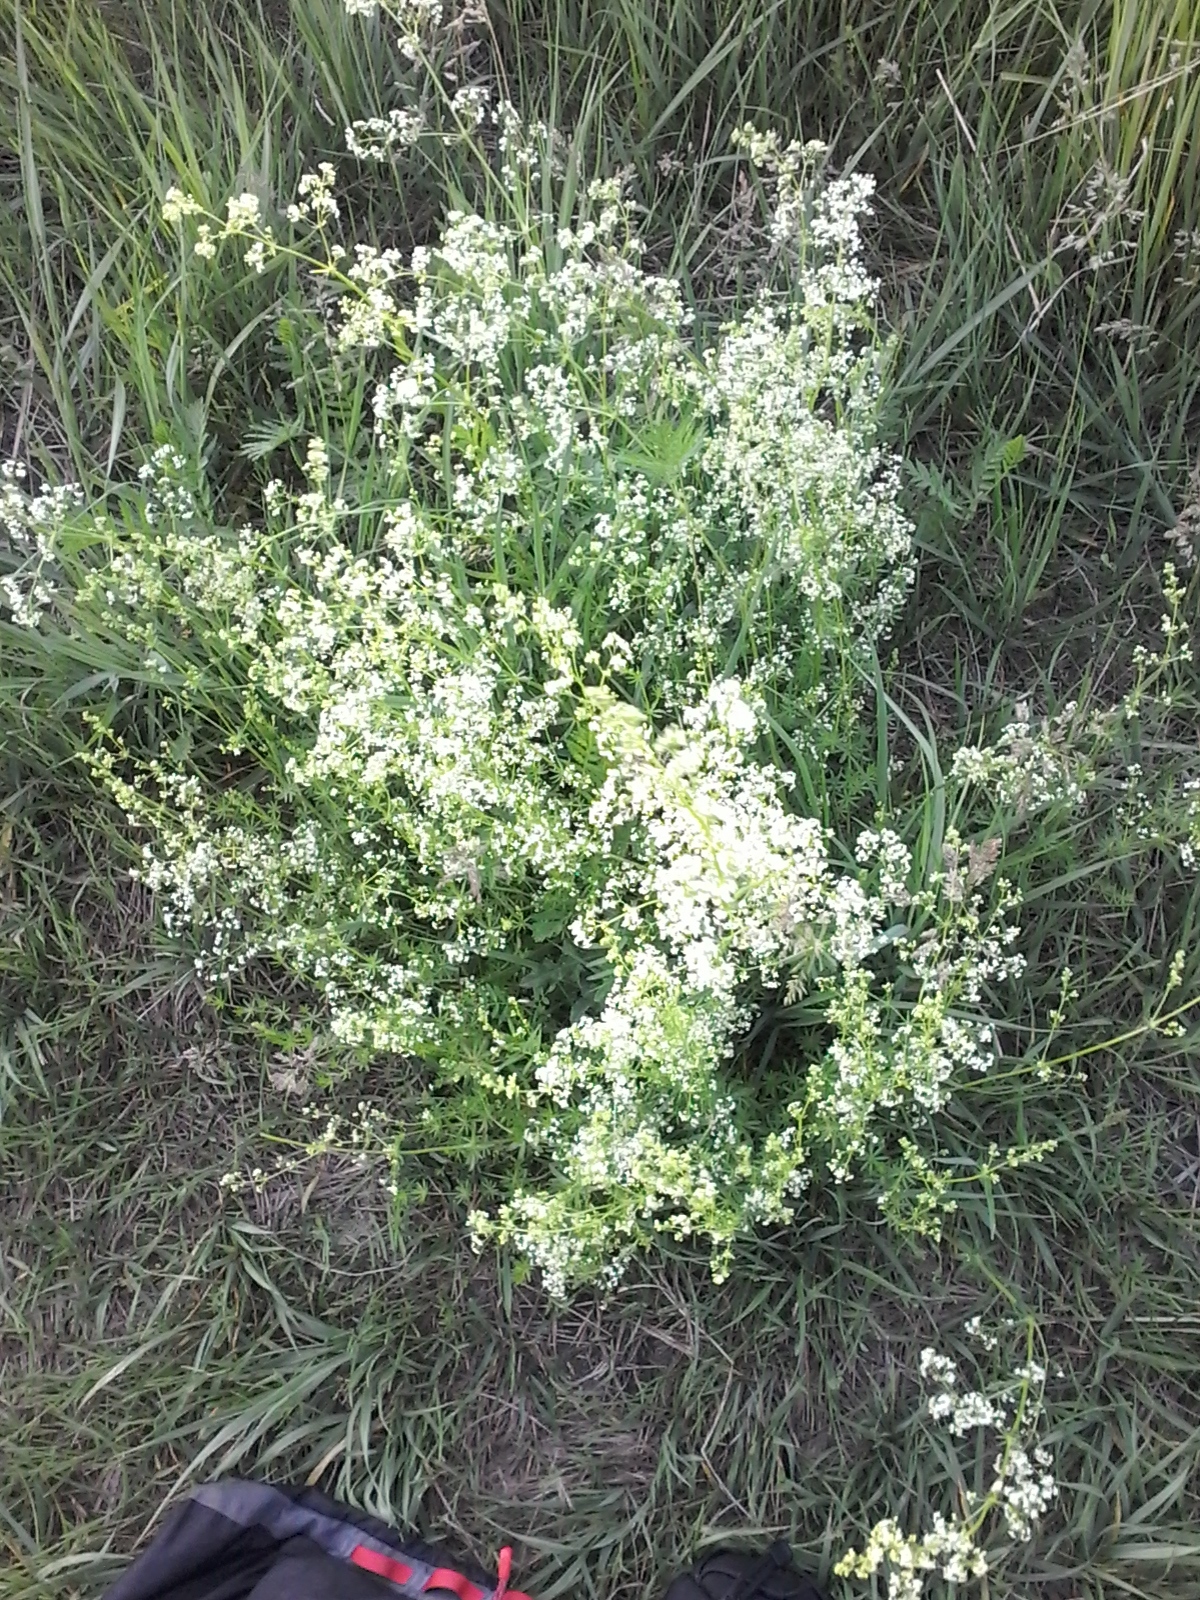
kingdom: Plantae
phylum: Tracheophyta
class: Magnoliopsida
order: Gentianales
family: Rubiaceae
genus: Galium
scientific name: Galium mollugo
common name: Hedge bedstraw
